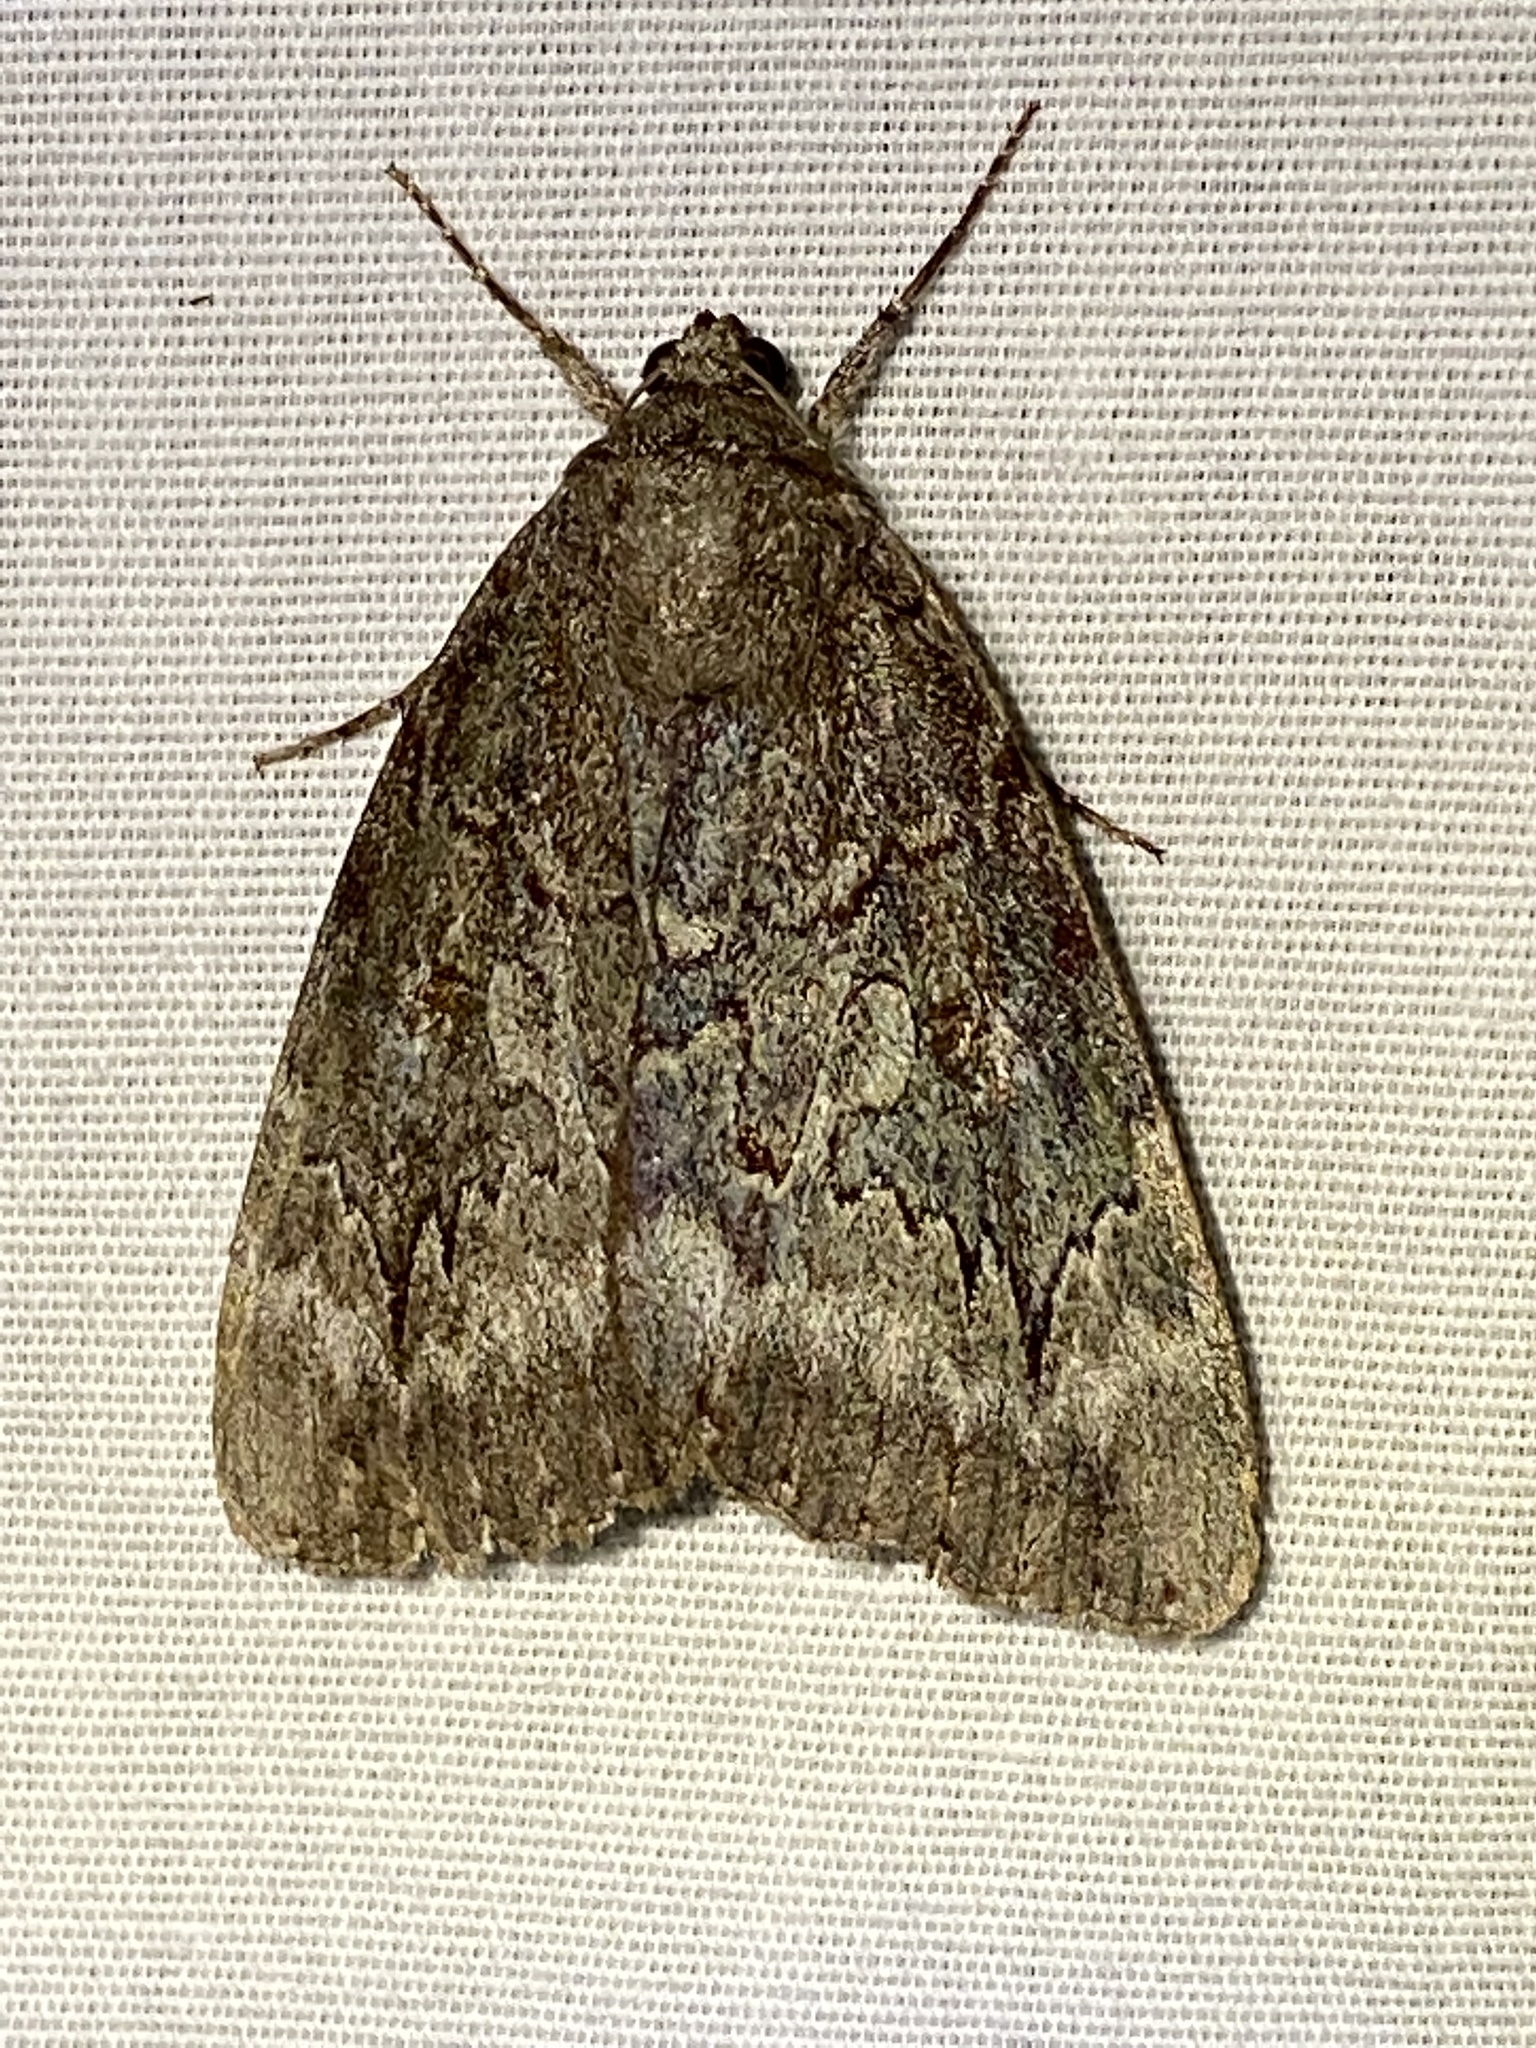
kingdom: Animalia
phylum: Arthropoda
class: Insecta
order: Lepidoptera
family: Erebidae
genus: Catocala
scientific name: Catocala residua
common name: Residua underwing
